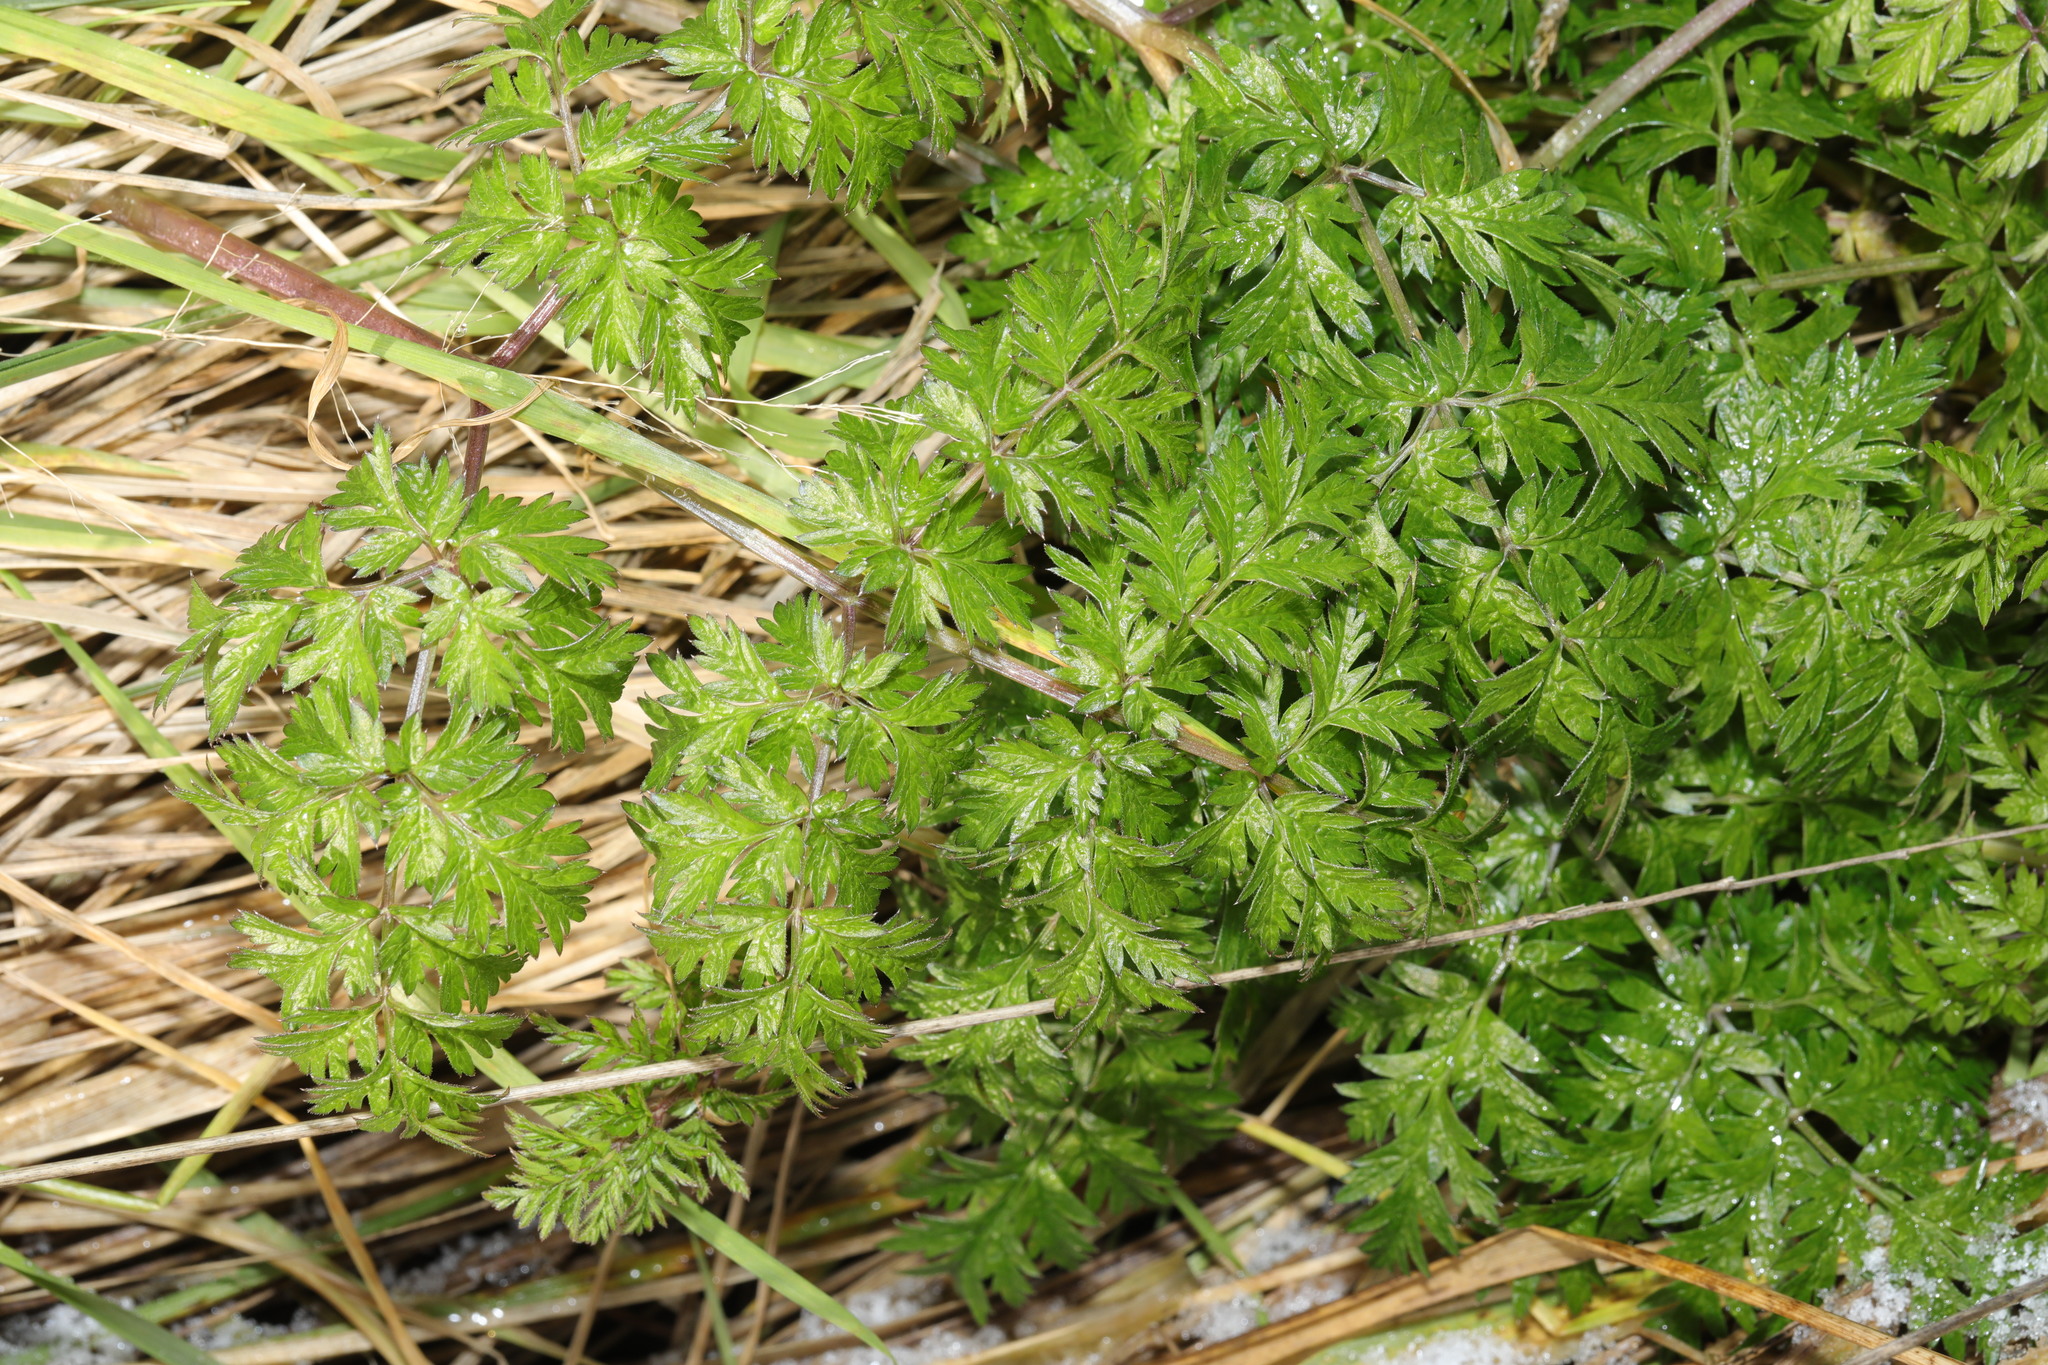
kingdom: Plantae
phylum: Tracheophyta
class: Magnoliopsida
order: Apiales
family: Apiaceae
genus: Anthriscus
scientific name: Anthriscus sylvestris
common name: Cow parsley
